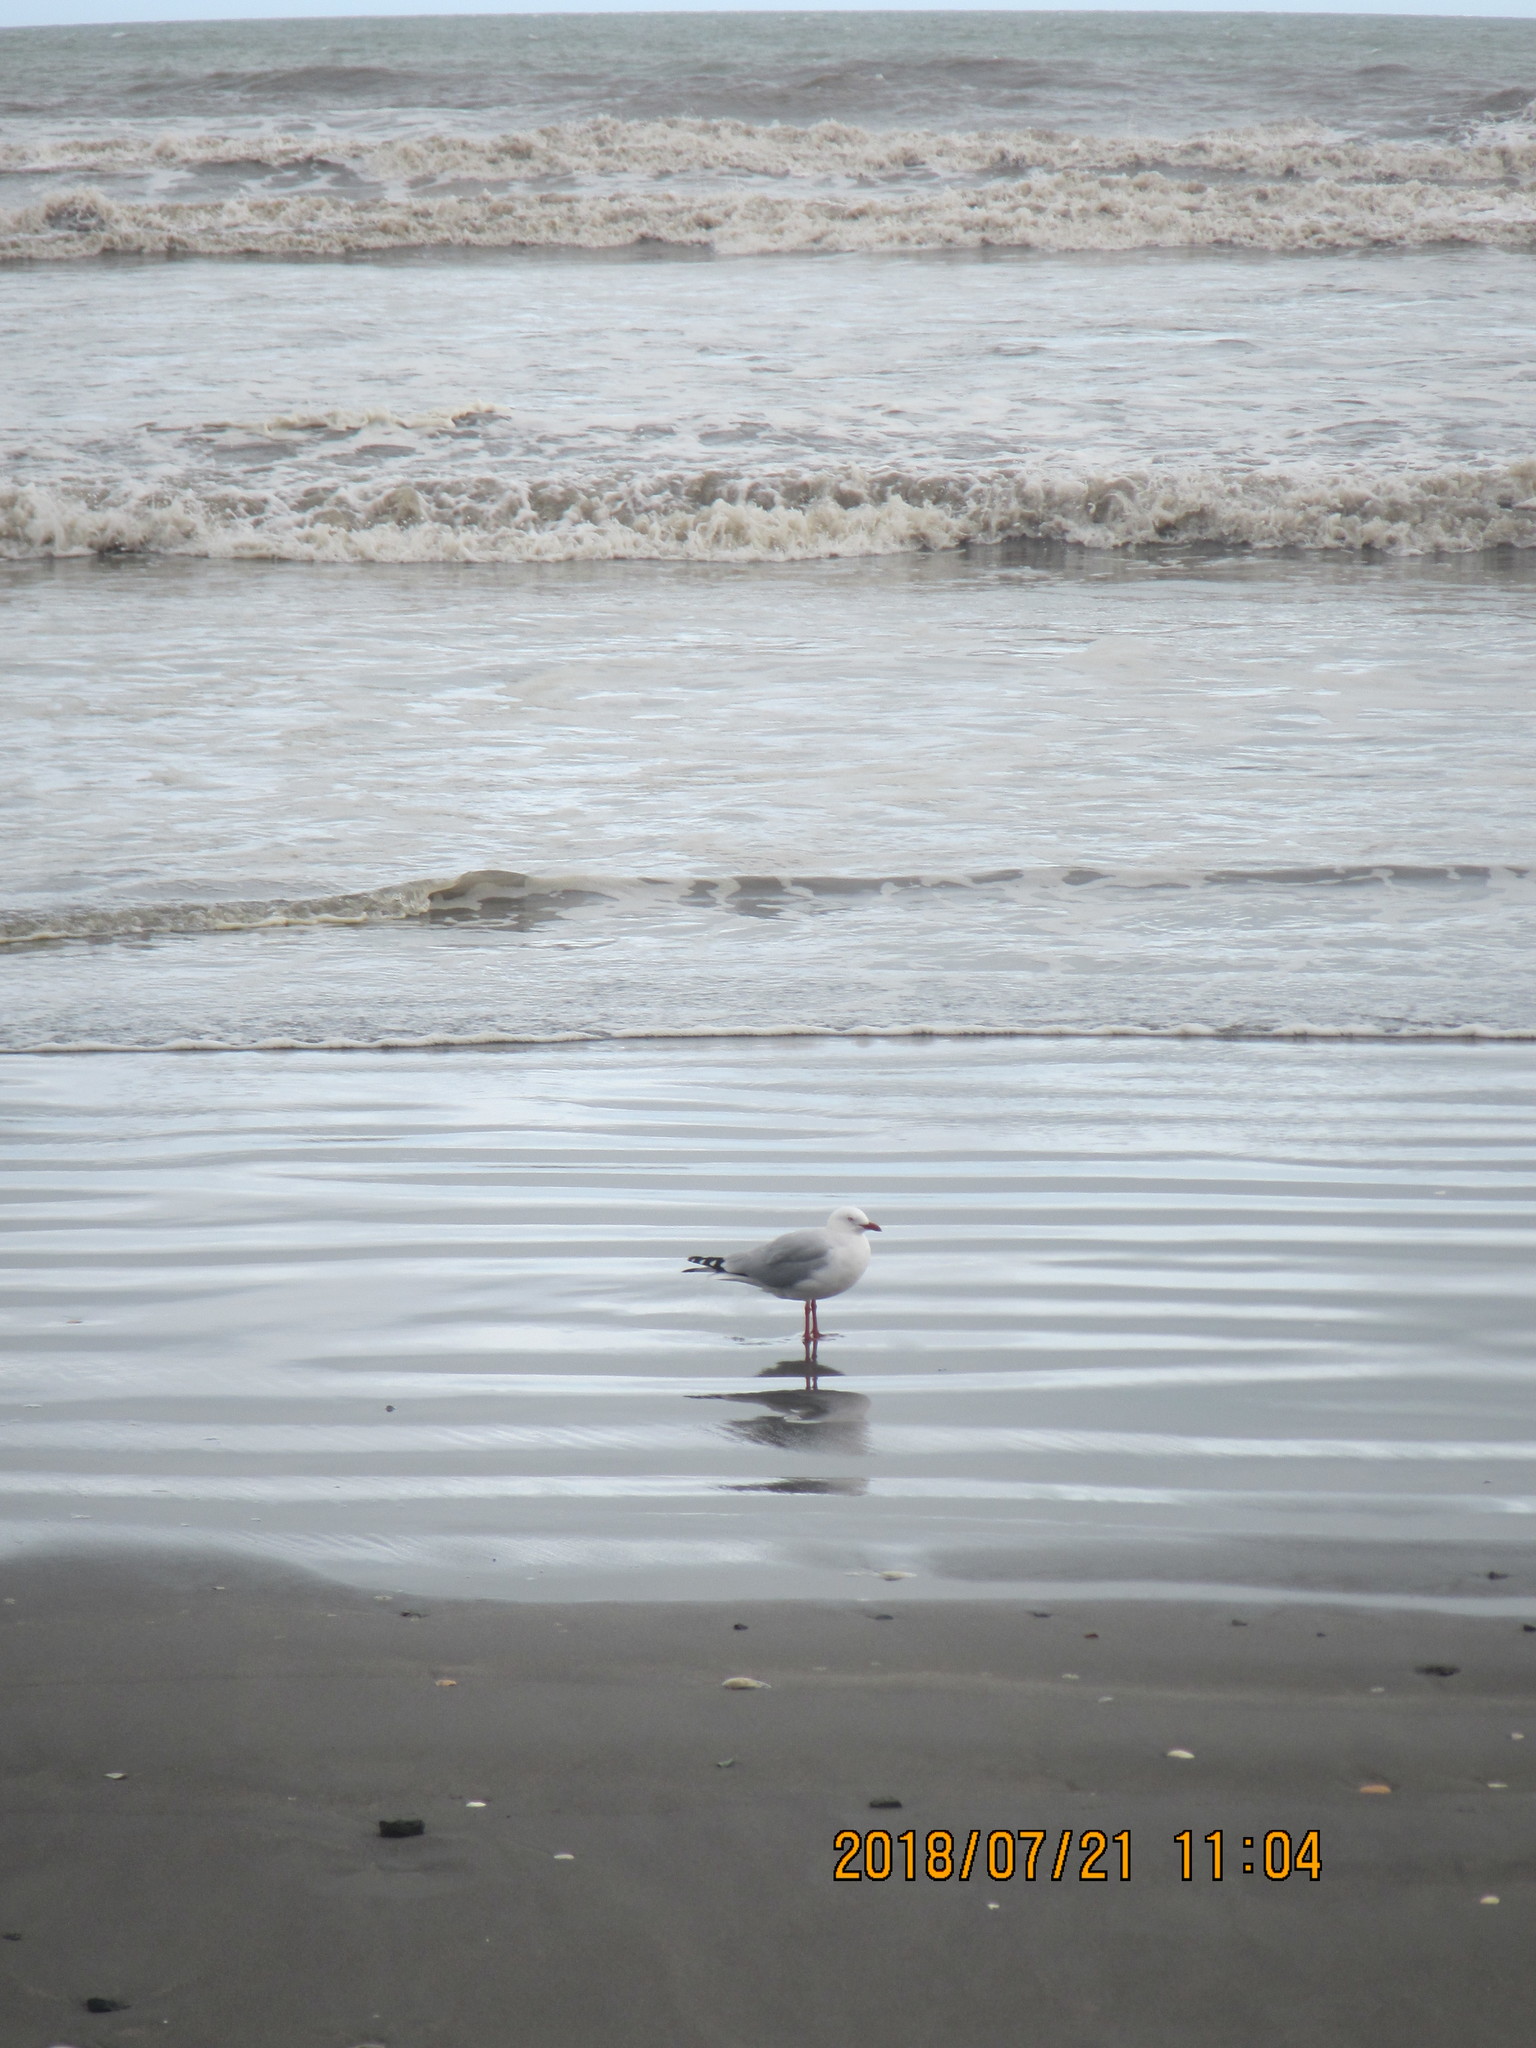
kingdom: Animalia
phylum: Chordata
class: Aves
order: Charadriiformes
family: Laridae
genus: Chroicocephalus
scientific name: Chroicocephalus novaehollandiae
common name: Silver gull
